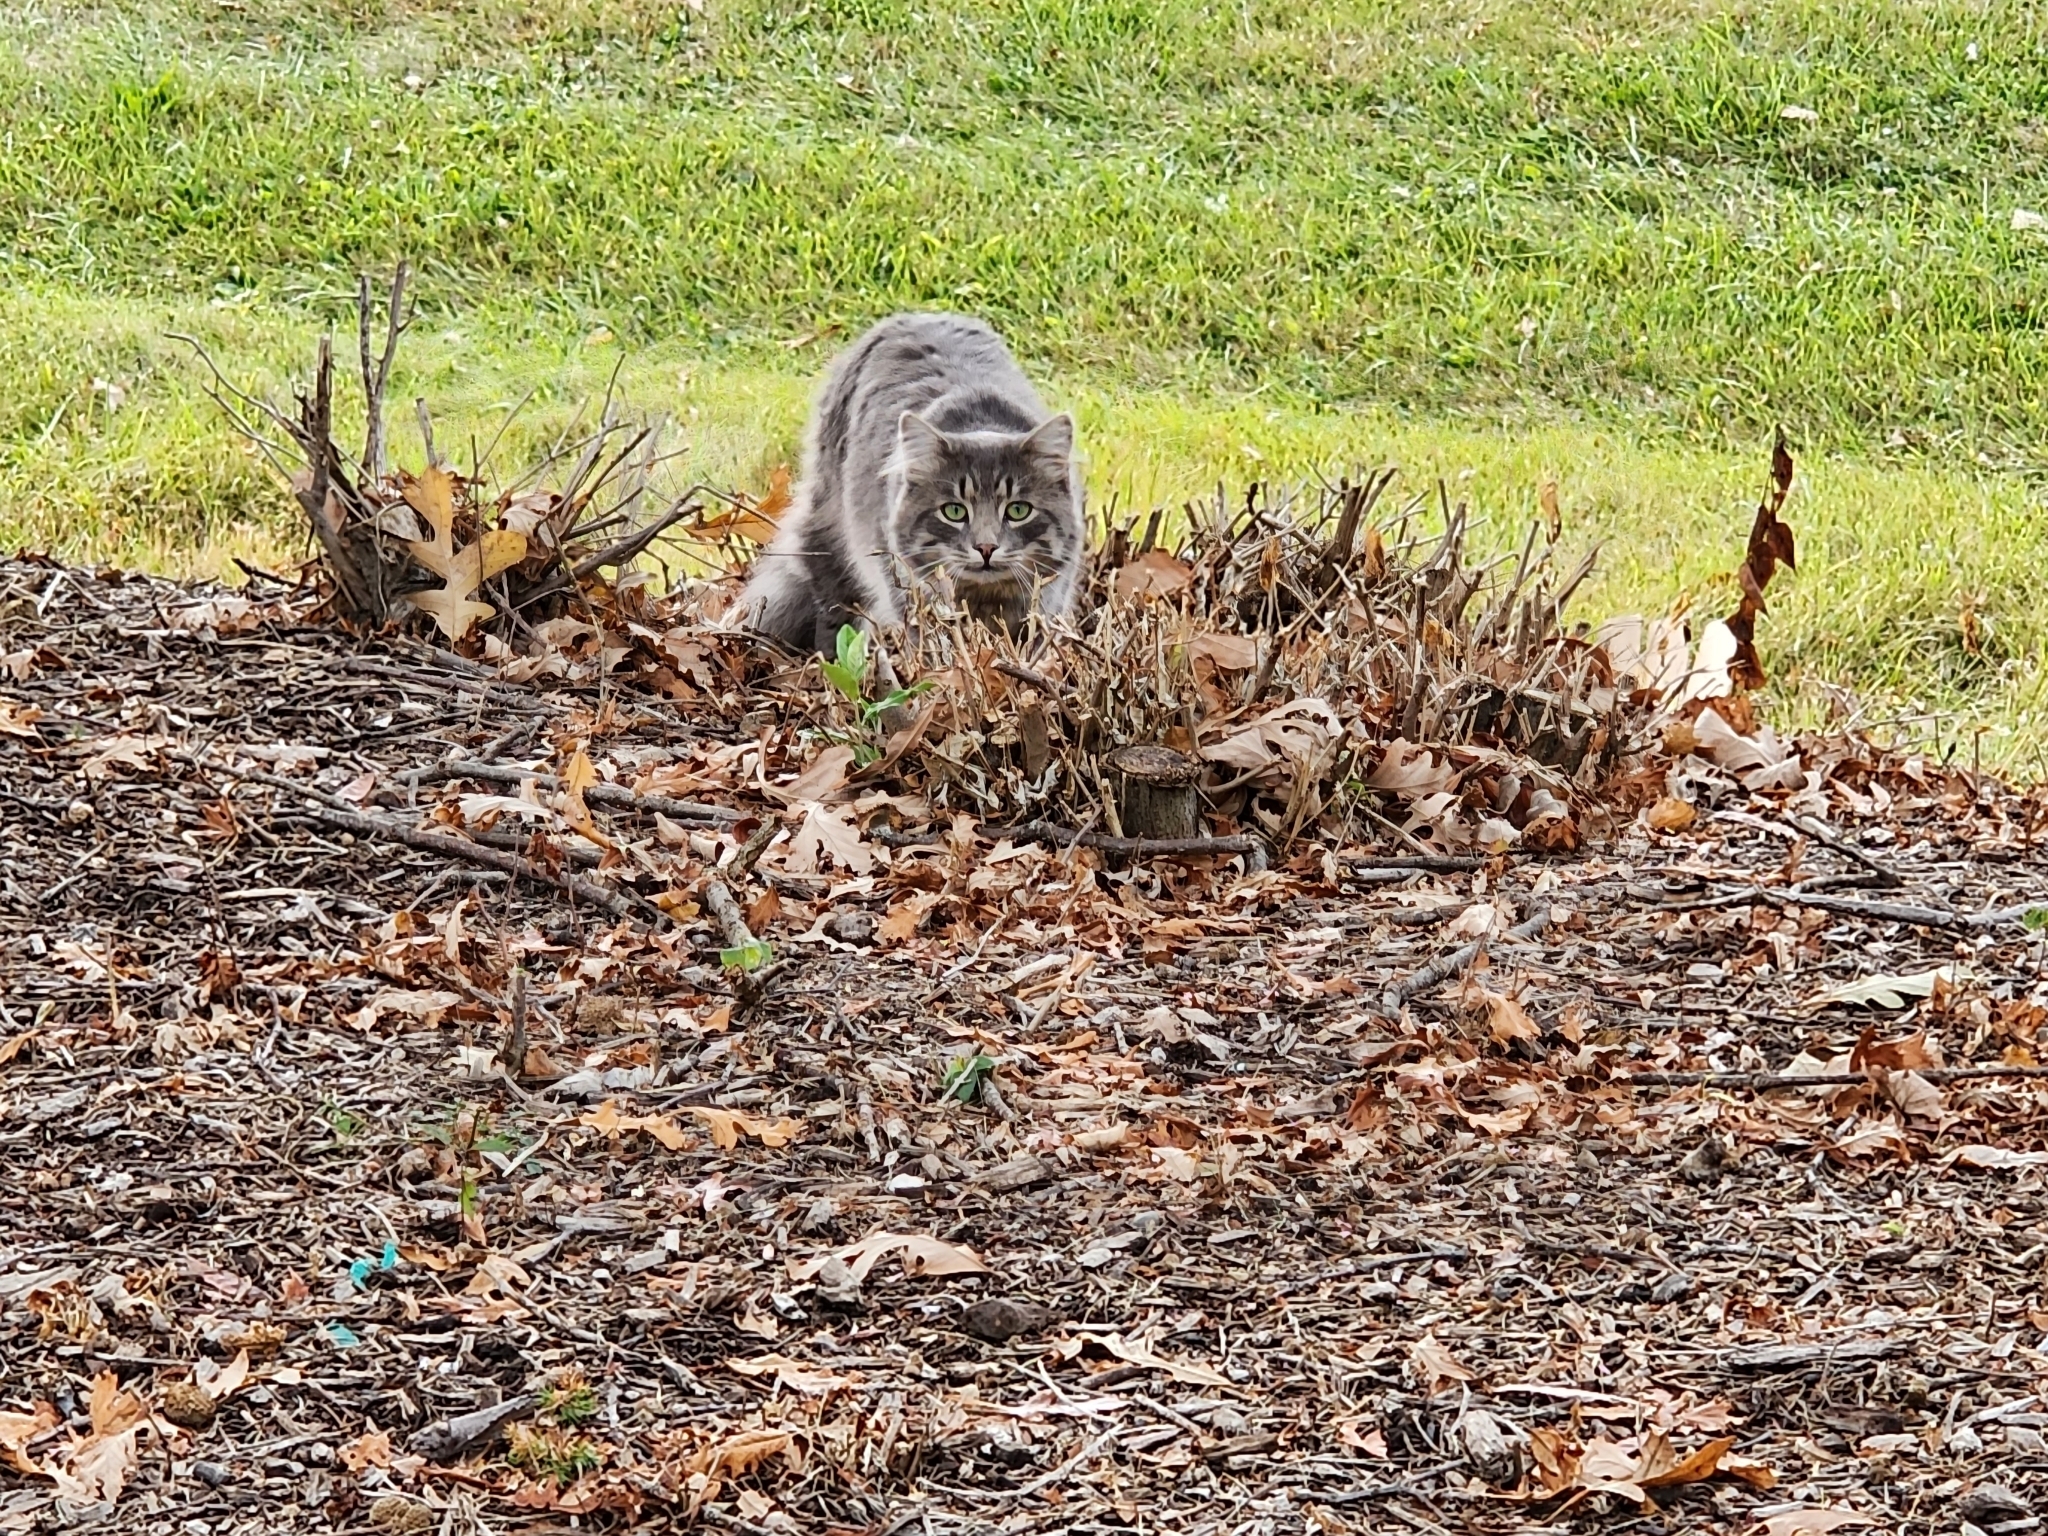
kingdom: Animalia
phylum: Chordata
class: Mammalia
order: Carnivora
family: Felidae
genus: Felis
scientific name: Felis catus
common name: Domestic cat
